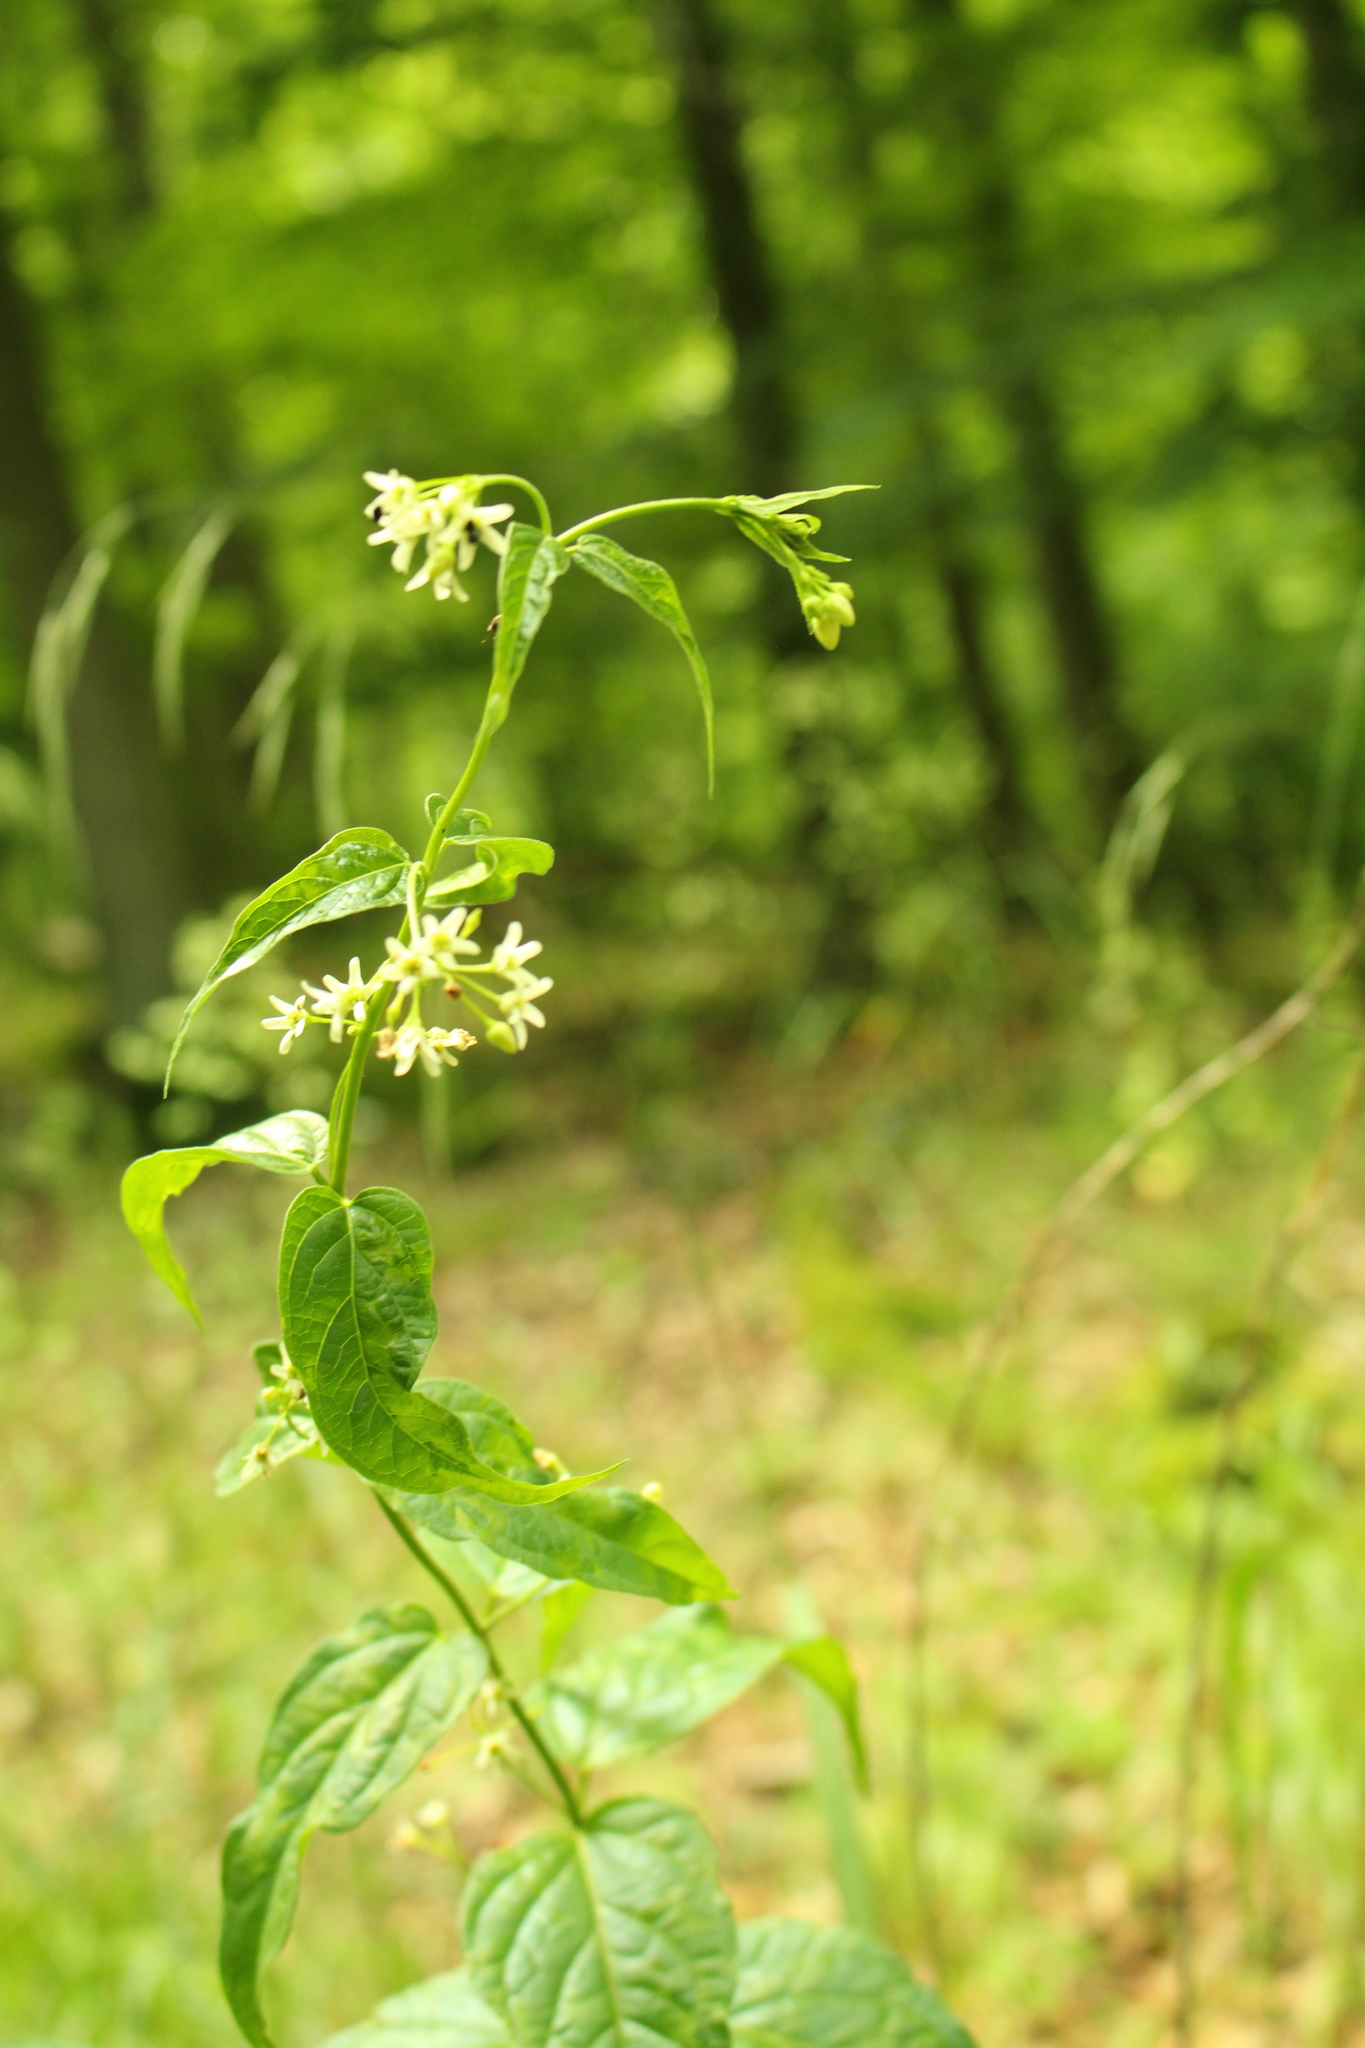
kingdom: Plantae
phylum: Tracheophyta
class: Magnoliopsida
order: Gentianales
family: Apocynaceae
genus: Vincetoxicum
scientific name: Vincetoxicum hirundinaria
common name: White swallowwort
